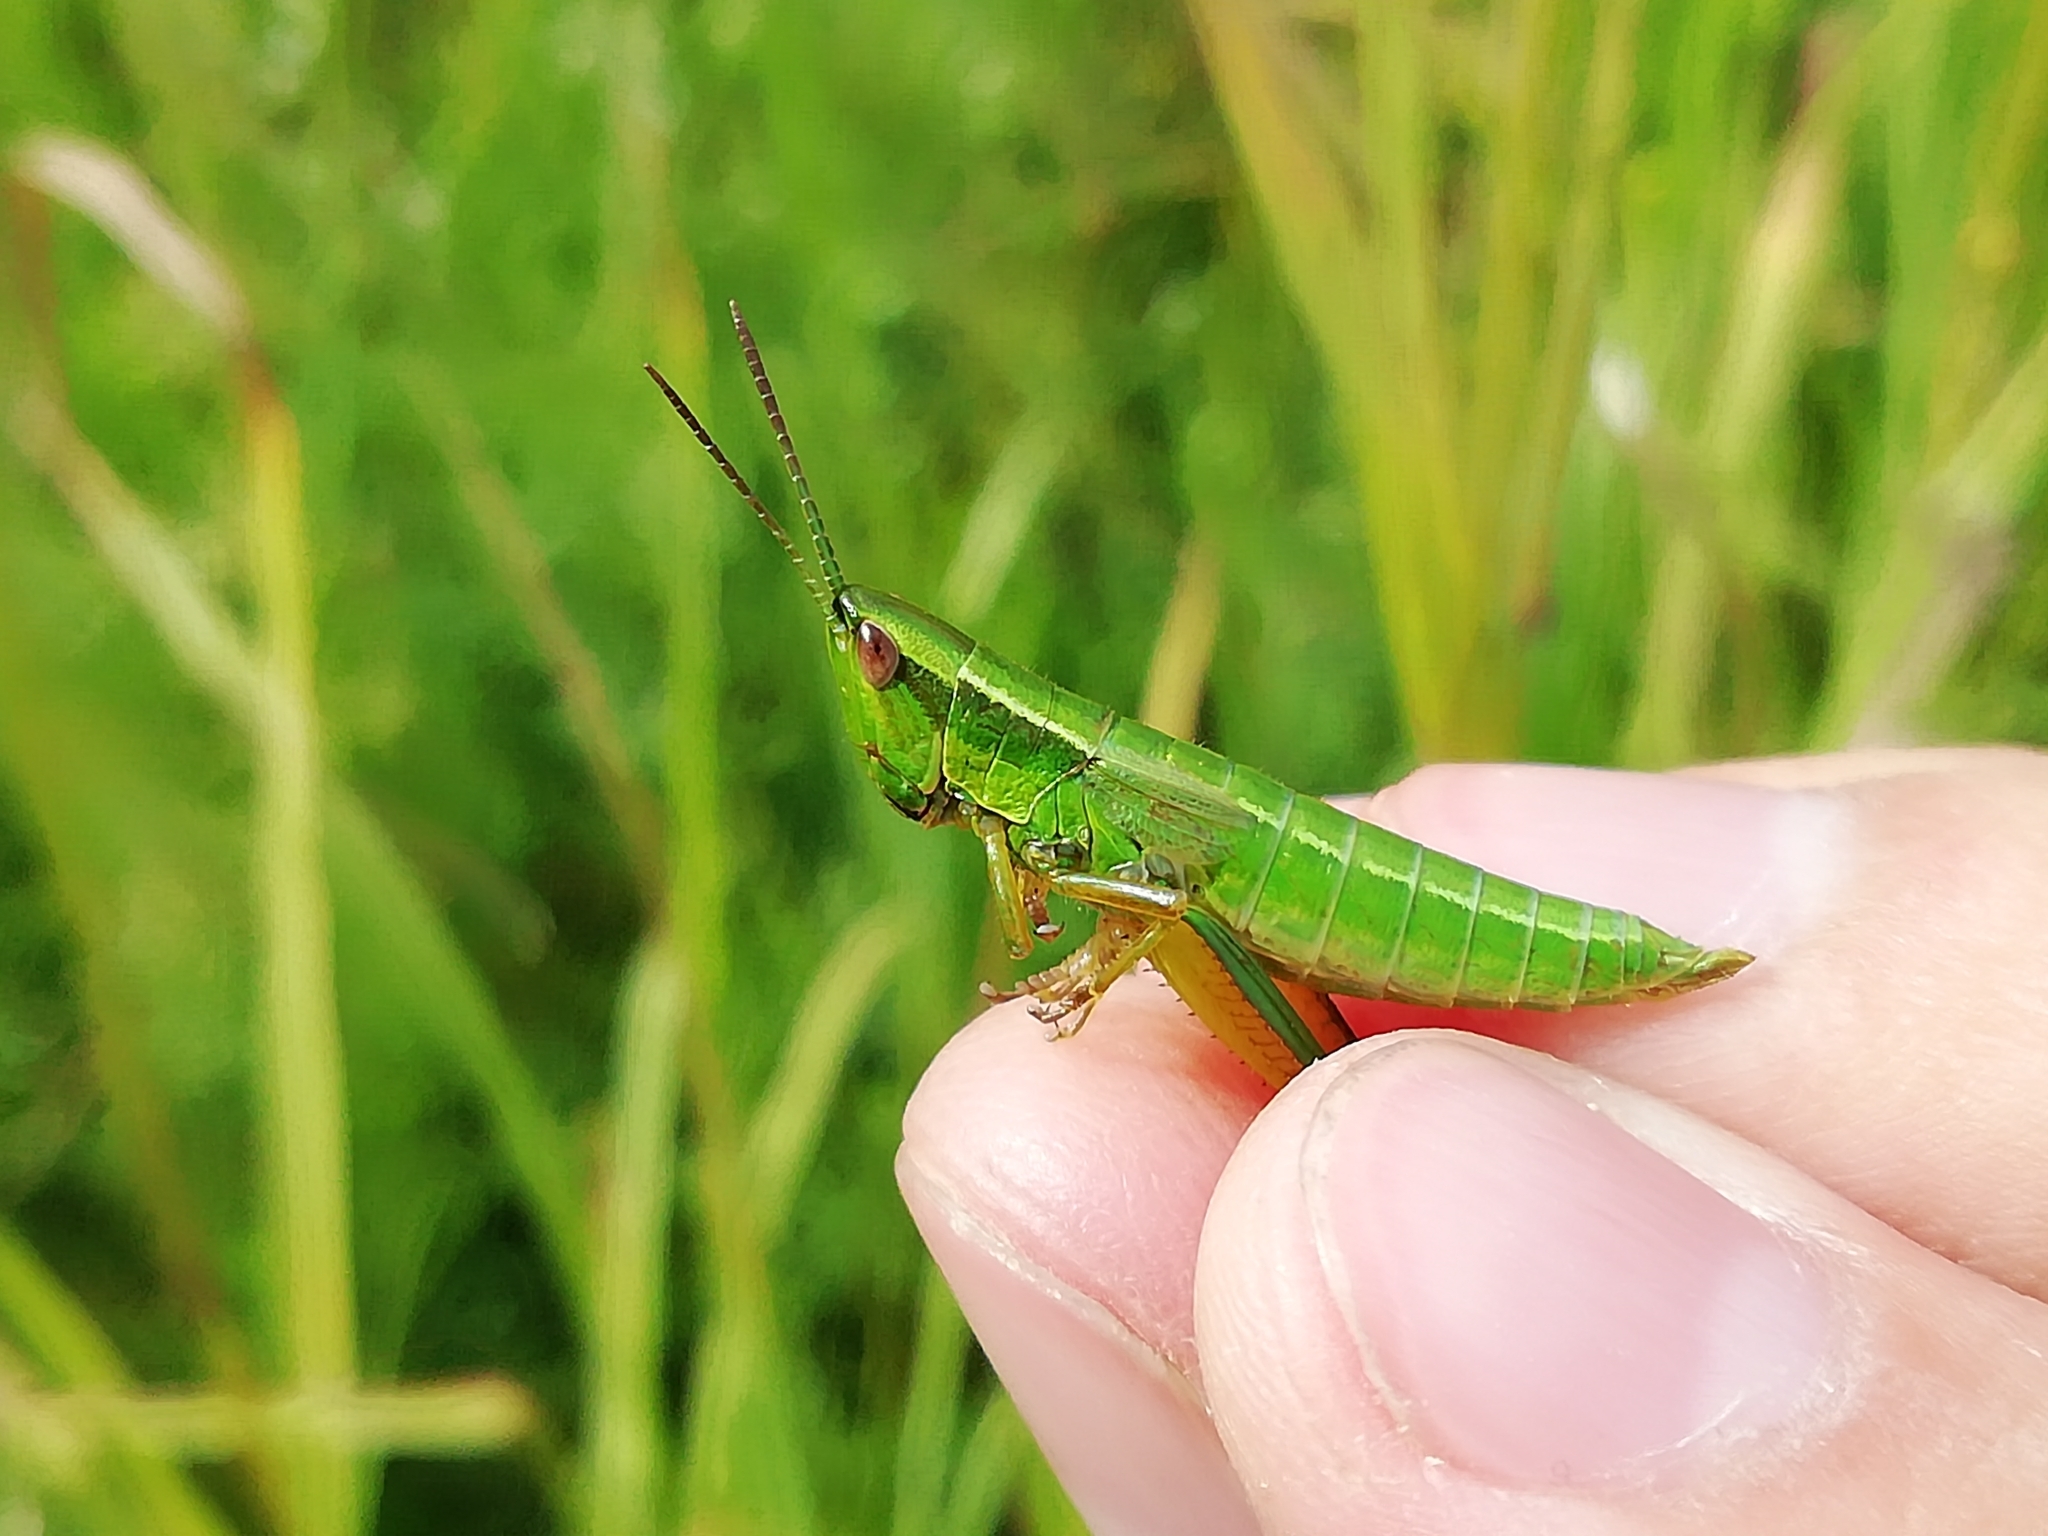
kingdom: Animalia
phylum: Arthropoda
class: Insecta
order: Orthoptera
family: Acrididae
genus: Euthystira
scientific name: Euthystira brachyptera
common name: Small gold grasshopper
